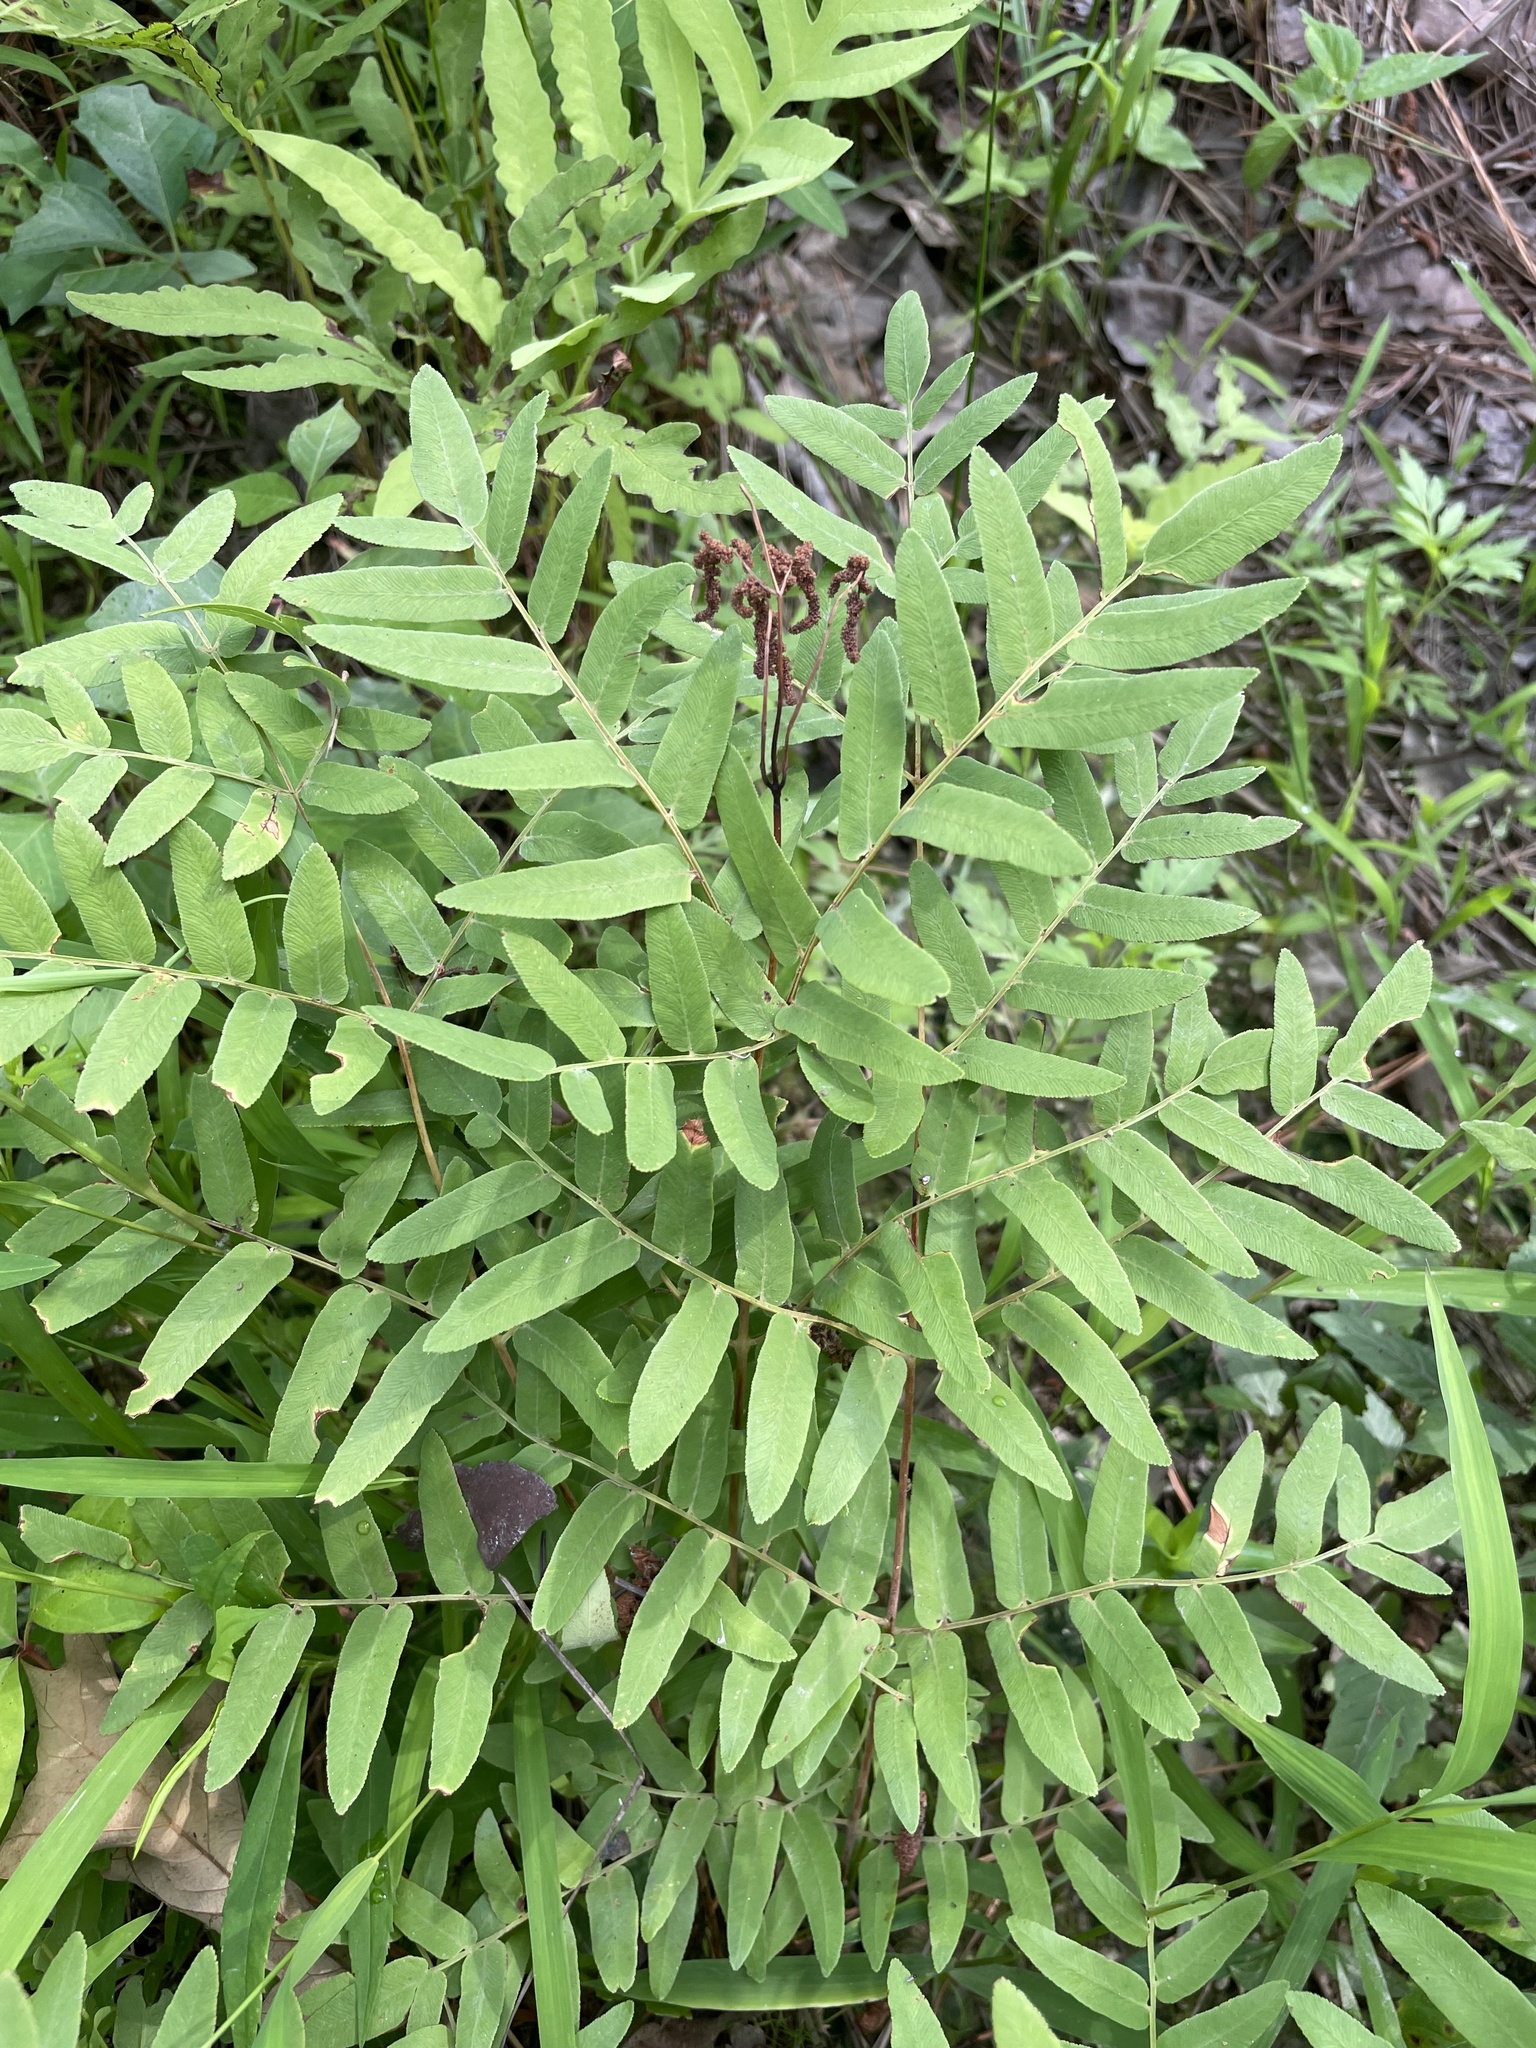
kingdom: Plantae
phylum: Tracheophyta
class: Polypodiopsida
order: Osmundales
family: Osmundaceae
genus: Osmunda
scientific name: Osmunda spectabilis
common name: American royal fern
